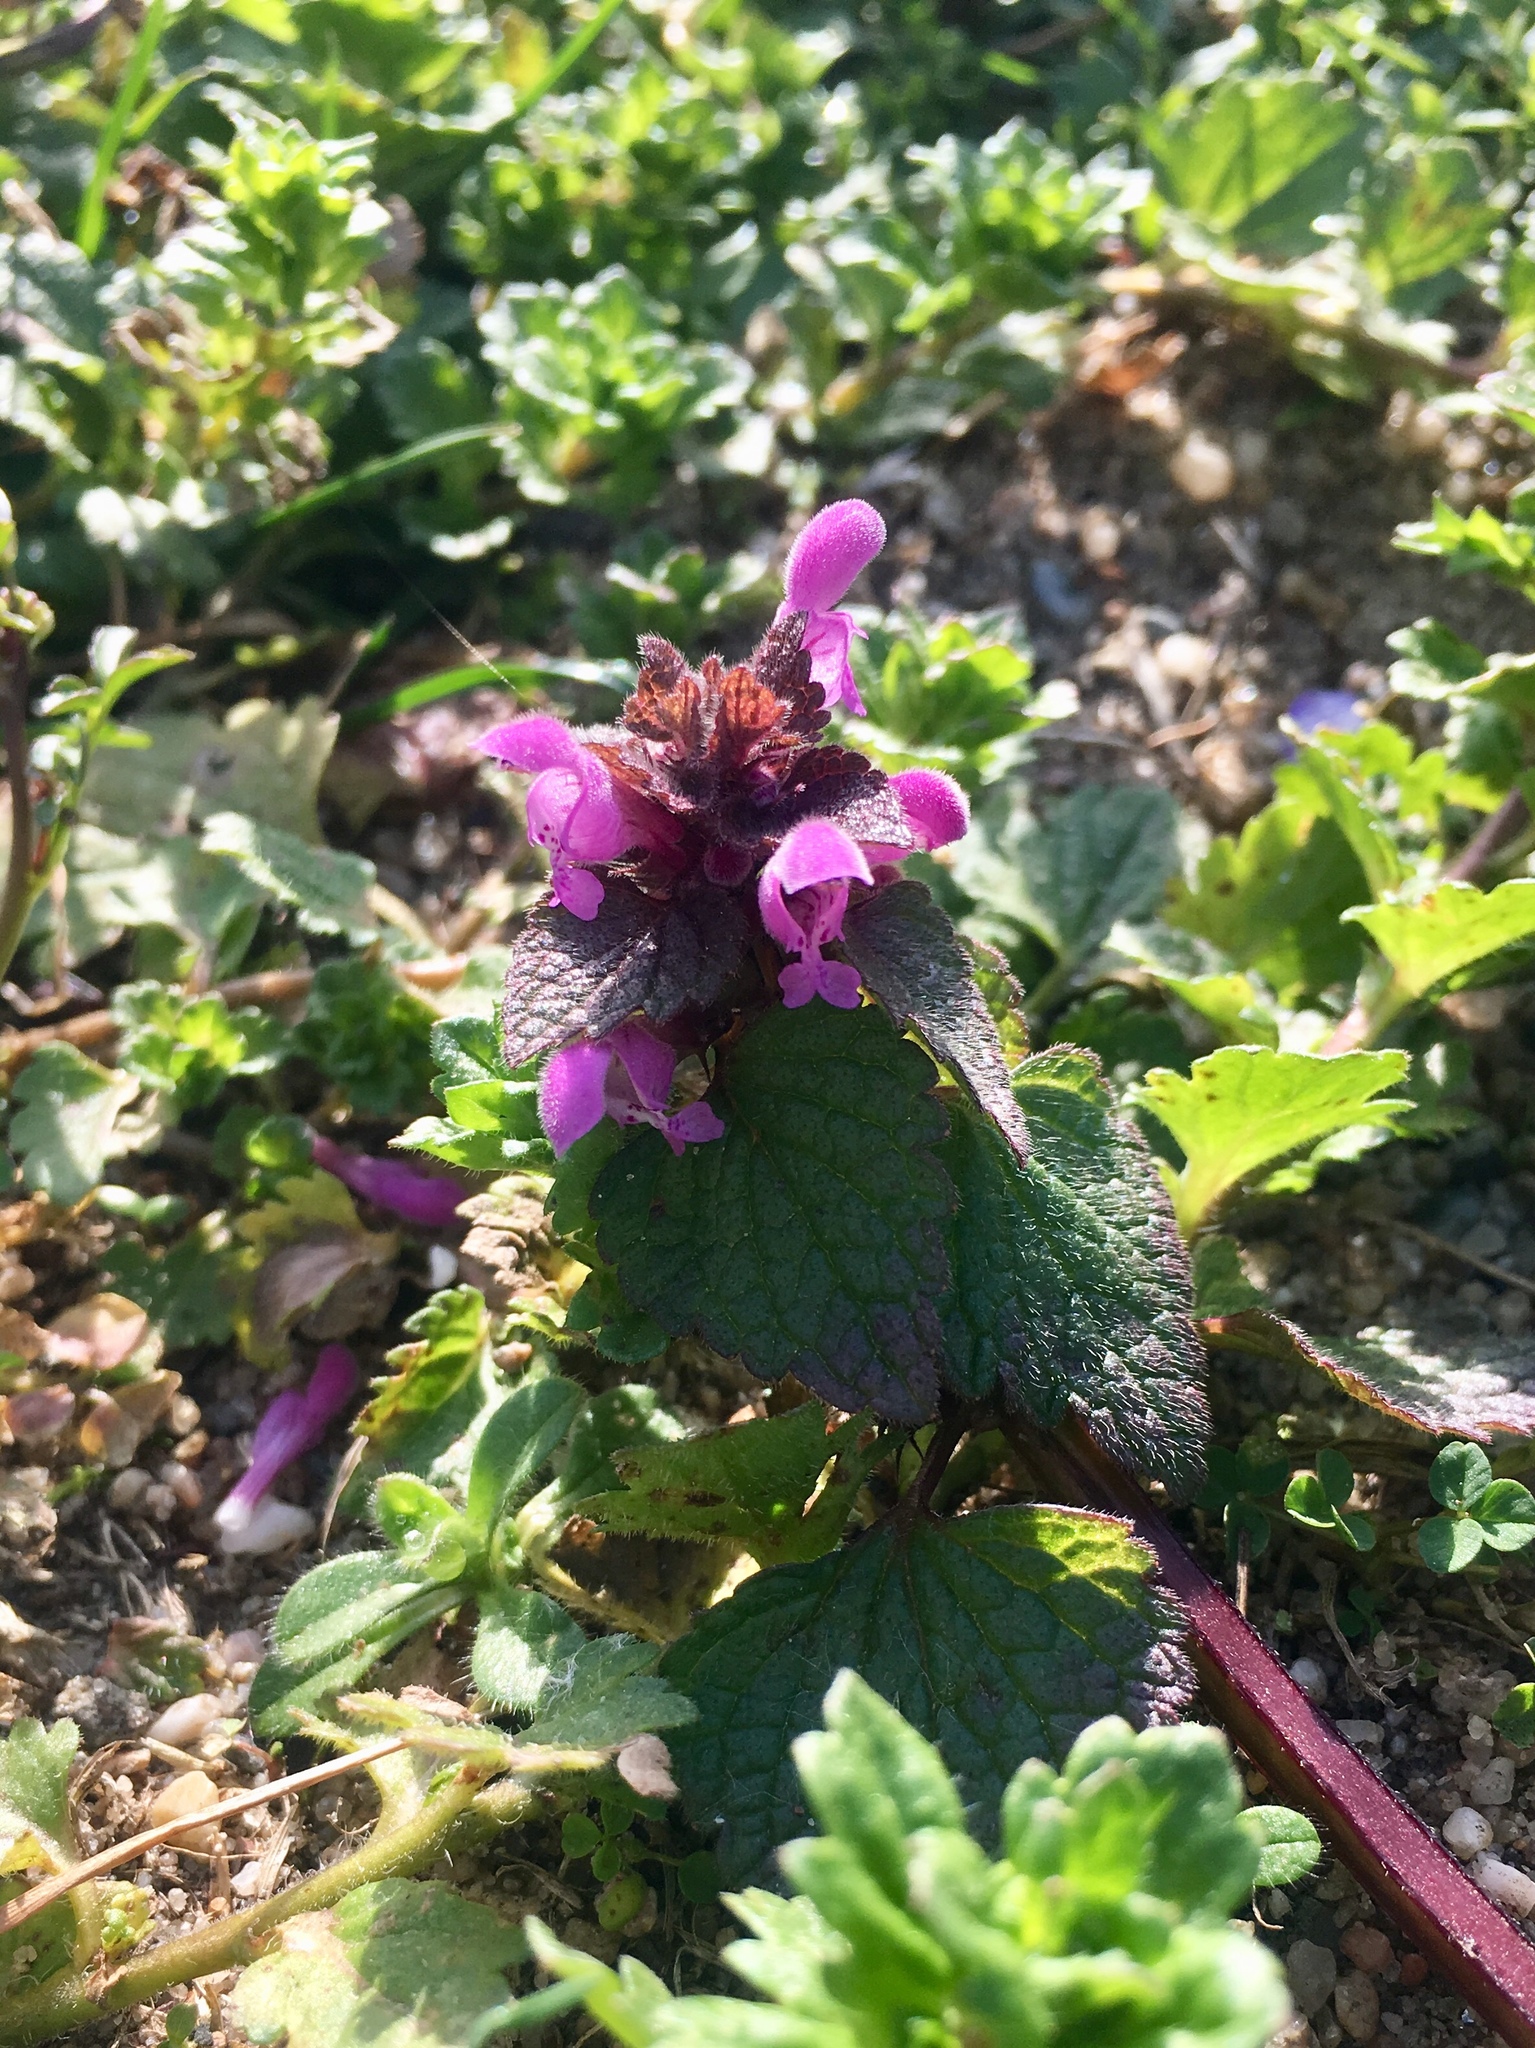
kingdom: Plantae
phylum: Tracheophyta
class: Magnoliopsida
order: Lamiales
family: Lamiaceae
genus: Lamium
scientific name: Lamium purpureum
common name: Red dead-nettle
